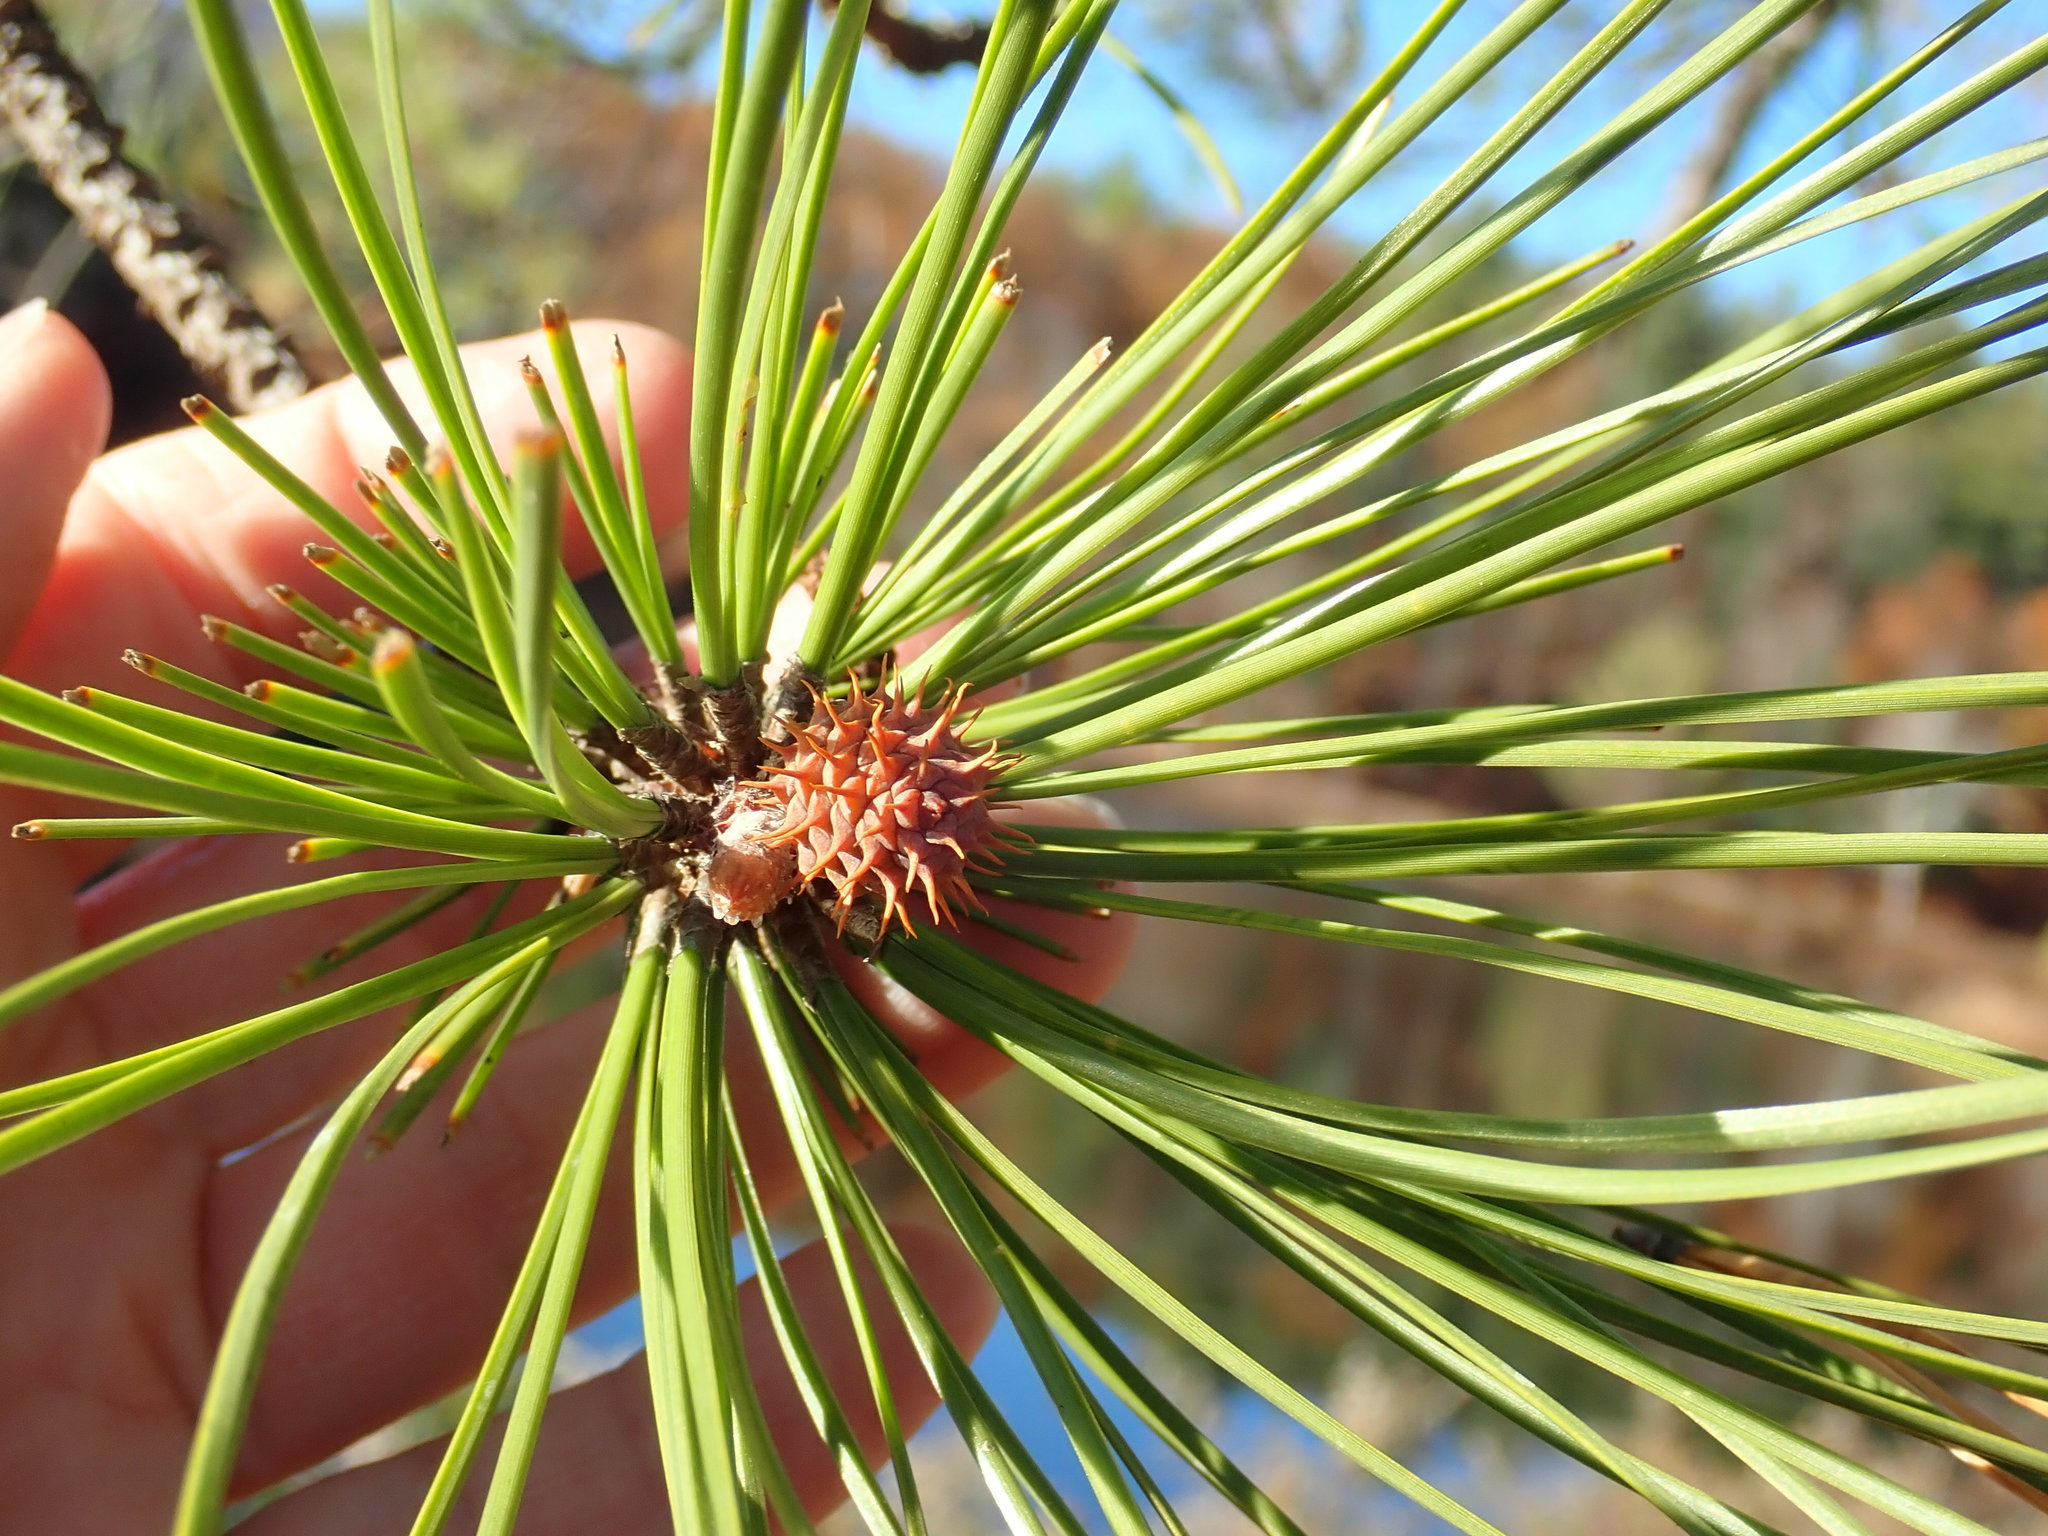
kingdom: Plantae
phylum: Tracheophyta
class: Pinopsida
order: Pinales
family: Pinaceae
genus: Pinus
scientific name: Pinus rigida
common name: Pitch pine
